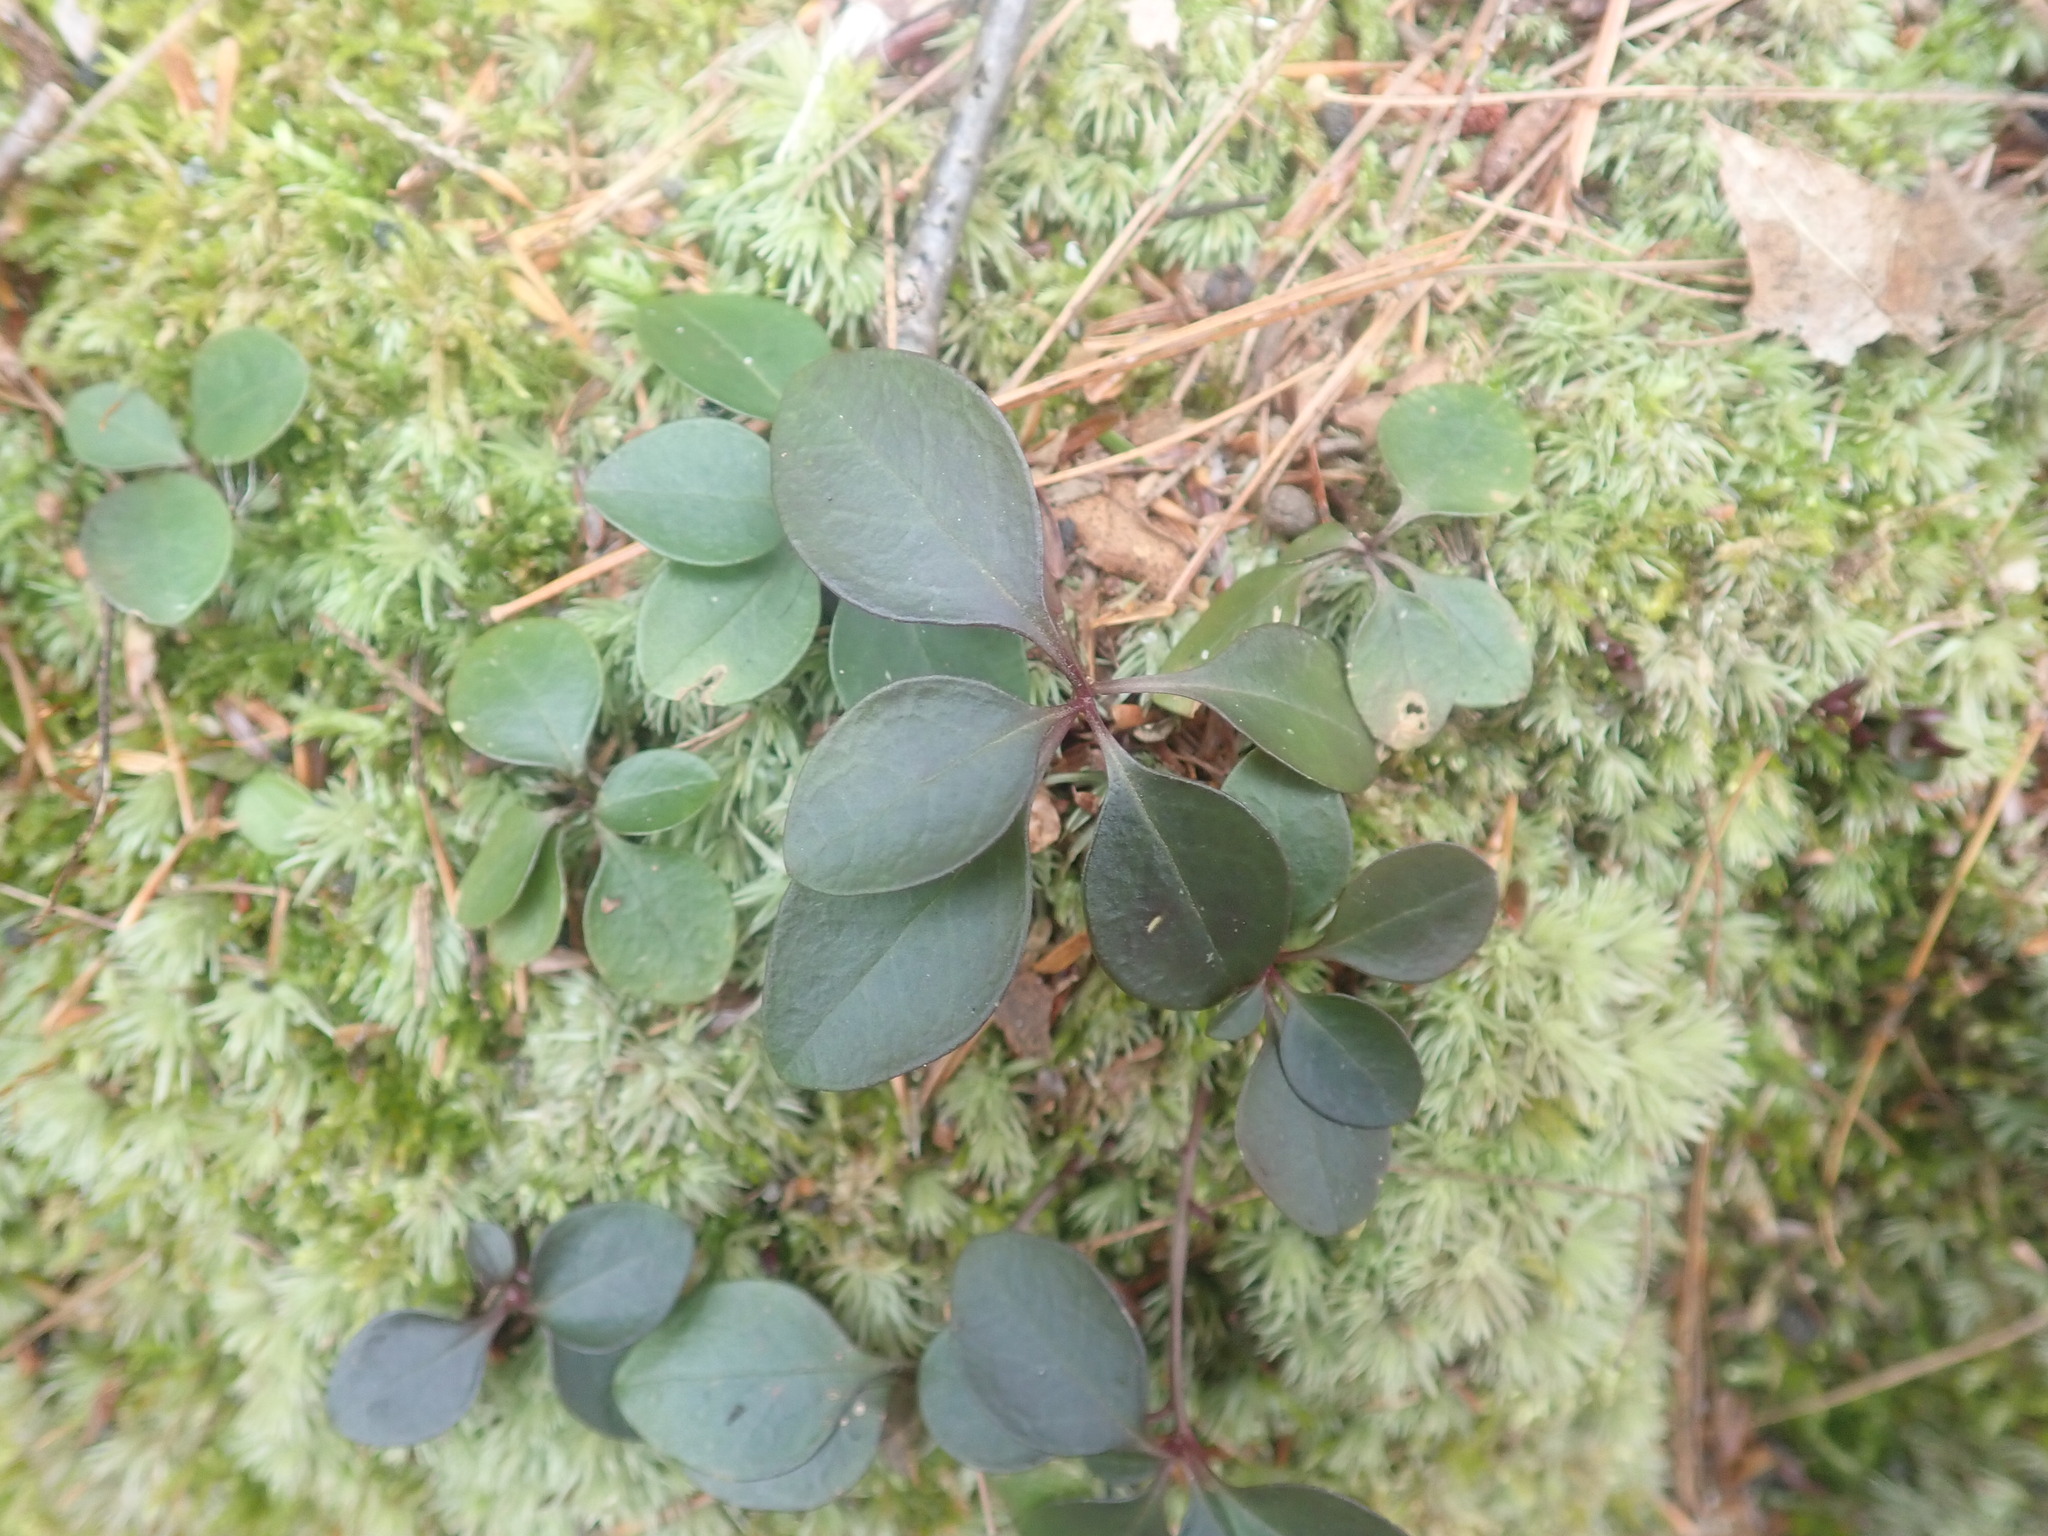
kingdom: Plantae
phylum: Tracheophyta
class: Magnoliopsida
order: Fabales
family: Polygalaceae
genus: Polygaloides
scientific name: Polygaloides paucifolia
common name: Bird-on-the-wing
